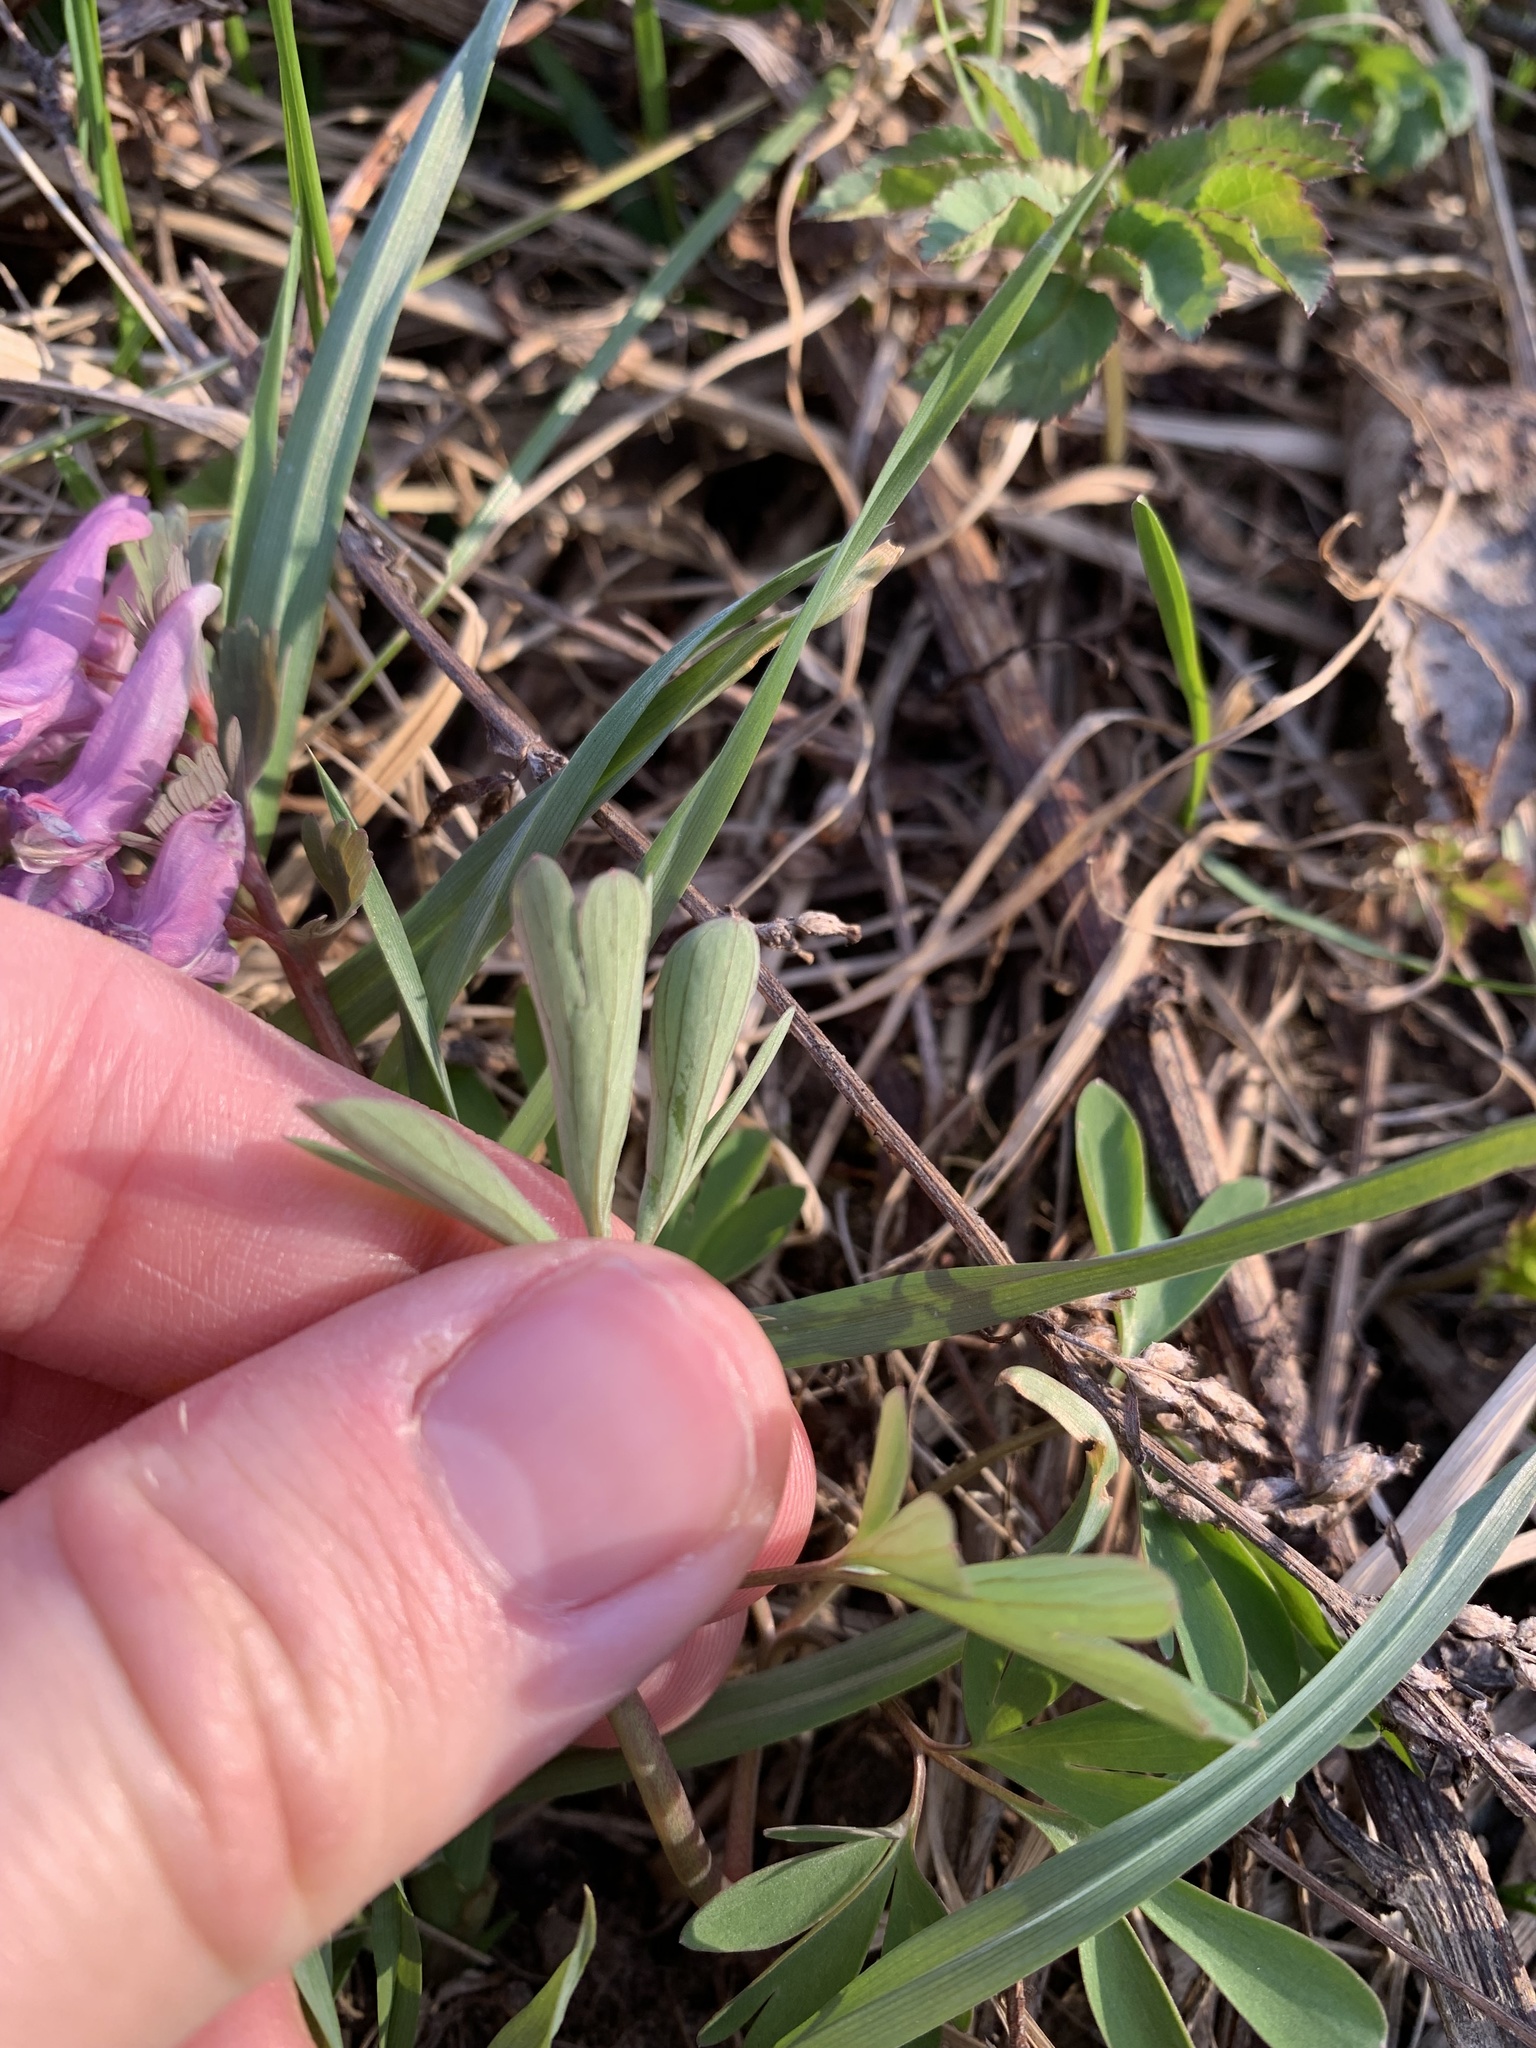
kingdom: Plantae
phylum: Tracheophyta
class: Magnoliopsida
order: Ranunculales
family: Papaveraceae
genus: Corydalis
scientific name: Corydalis solida
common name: Bird-in-a-bush
